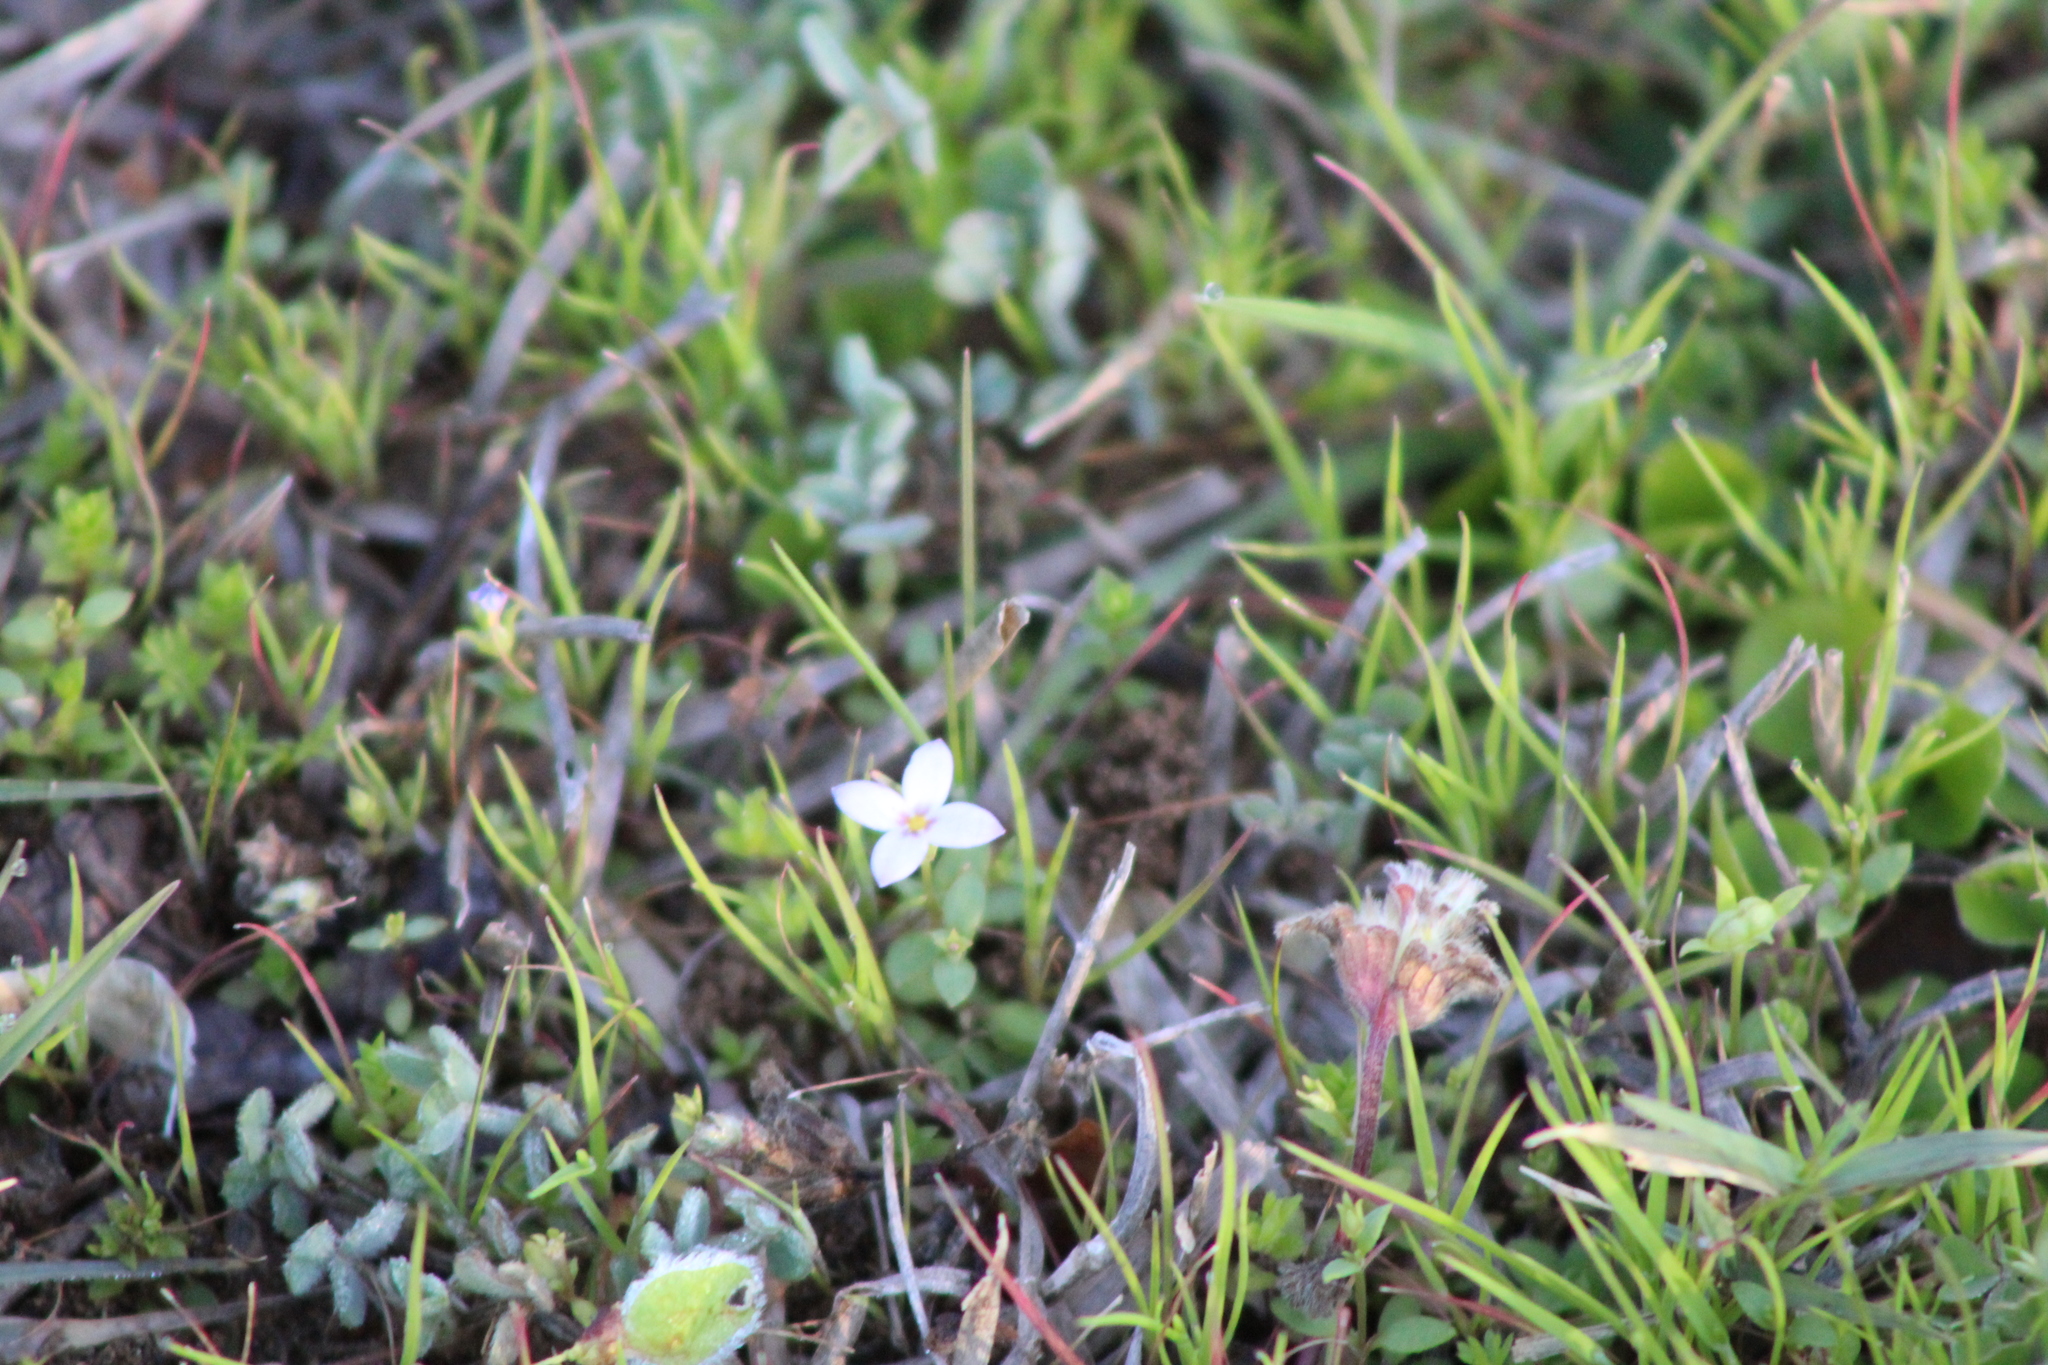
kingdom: Plantae
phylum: Tracheophyta
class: Magnoliopsida
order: Gentianales
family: Rubiaceae
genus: Houstonia
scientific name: Houstonia pusilla
